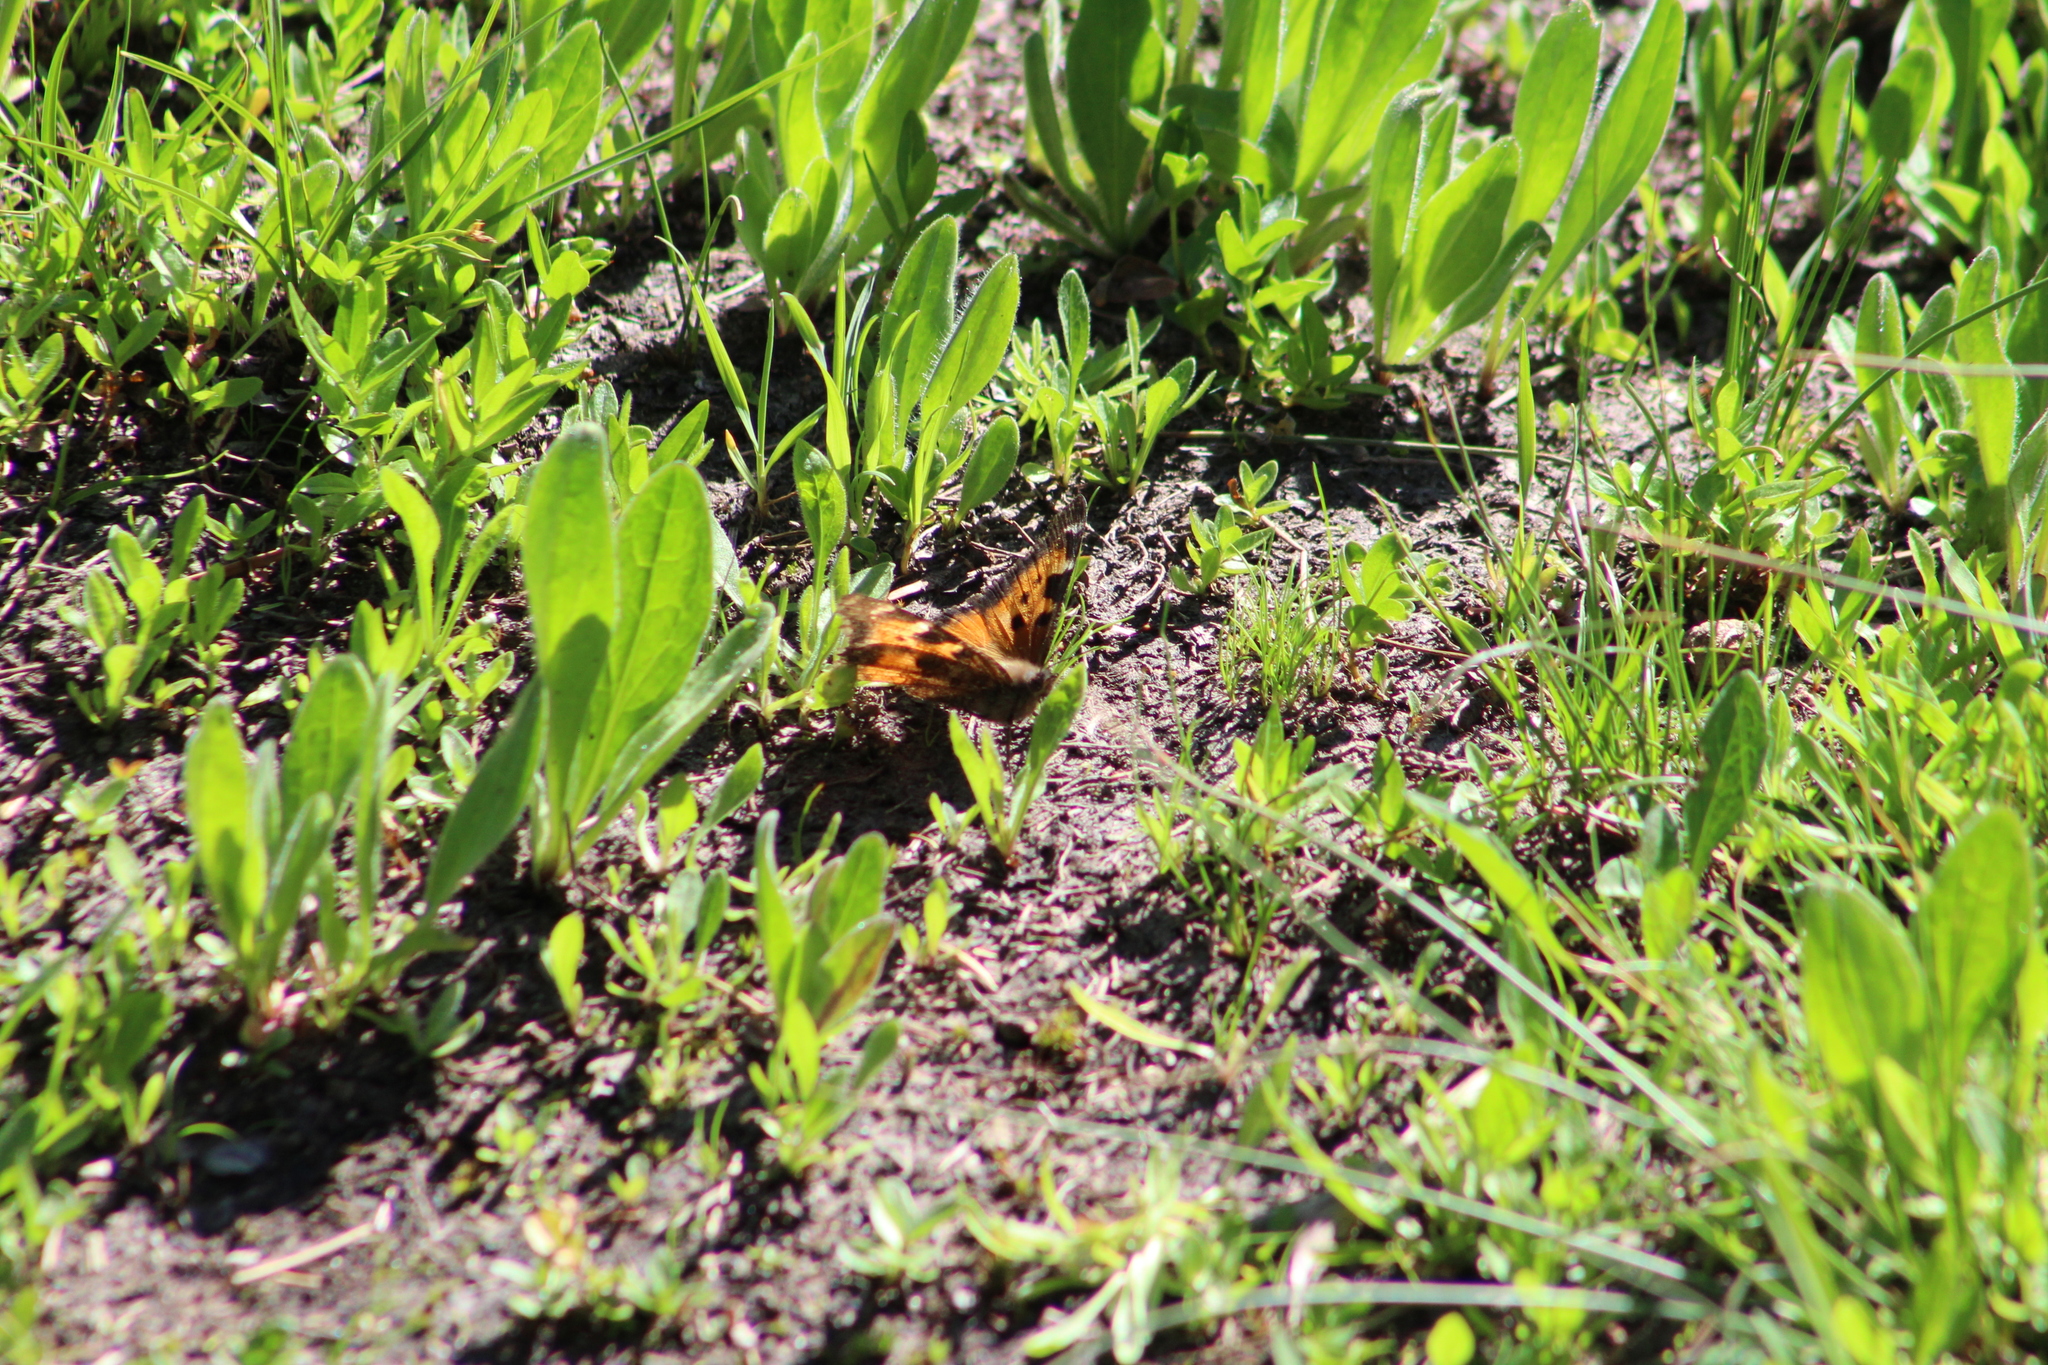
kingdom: Animalia
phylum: Arthropoda
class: Insecta
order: Lepidoptera
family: Nymphalidae
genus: Nymphalis
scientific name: Nymphalis californica
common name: California tortoiseshell
